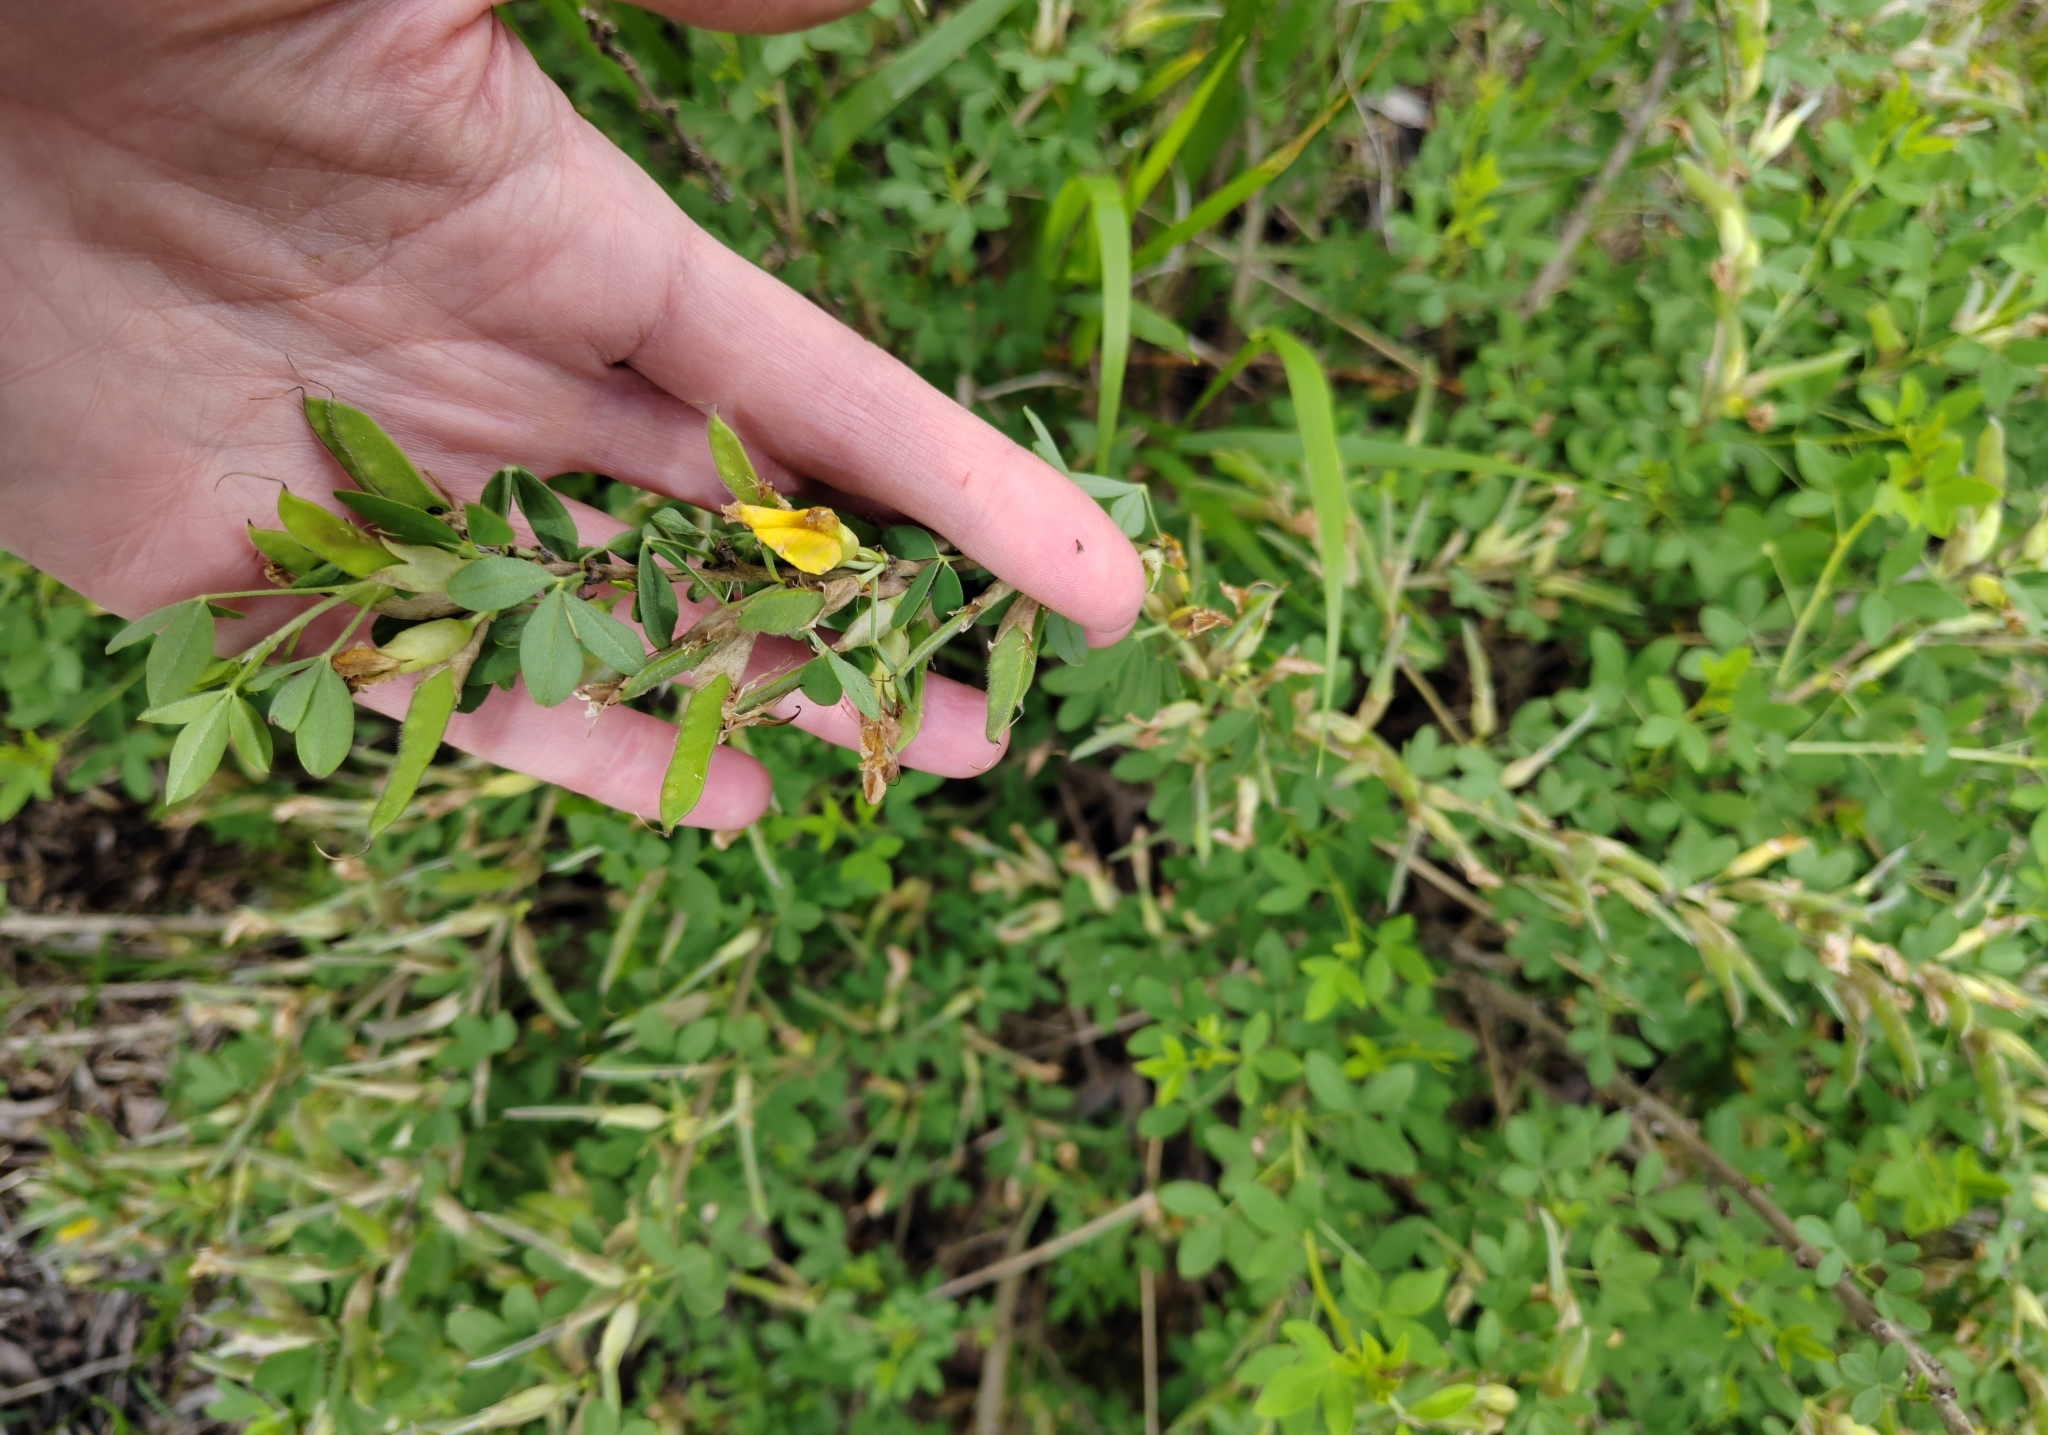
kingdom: Plantae
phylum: Tracheophyta
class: Magnoliopsida
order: Fabales
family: Fabaceae
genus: Chamaecytisus
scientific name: Chamaecytisus ruthenicus
